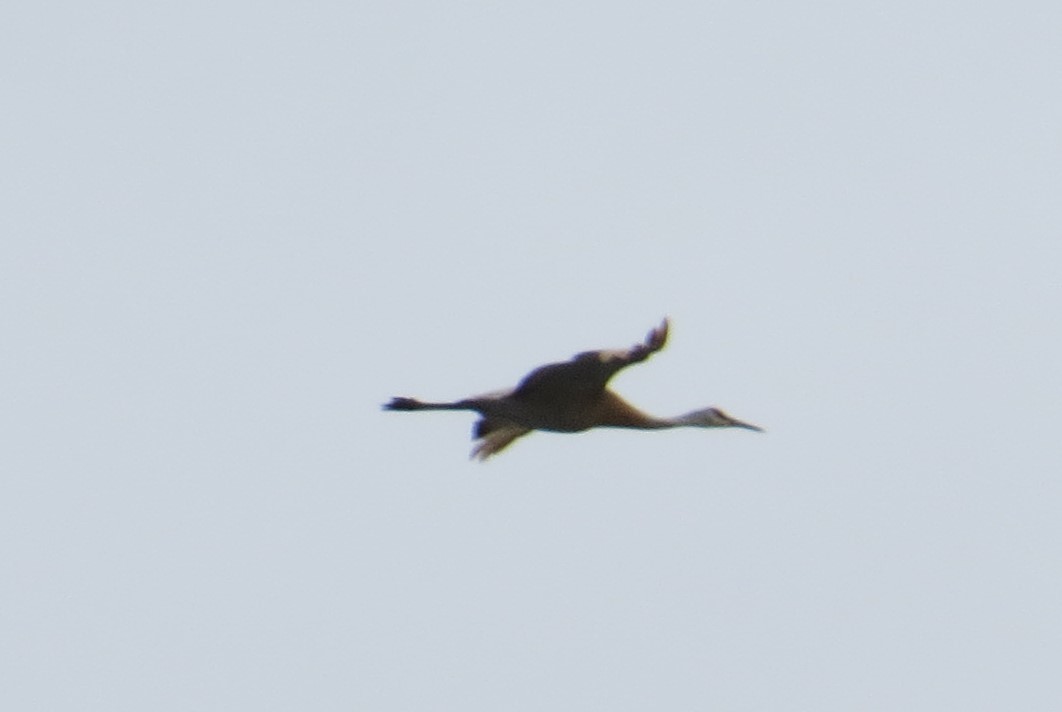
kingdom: Animalia
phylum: Chordata
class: Aves
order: Gruiformes
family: Gruidae
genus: Grus
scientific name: Grus canadensis
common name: Sandhill crane
